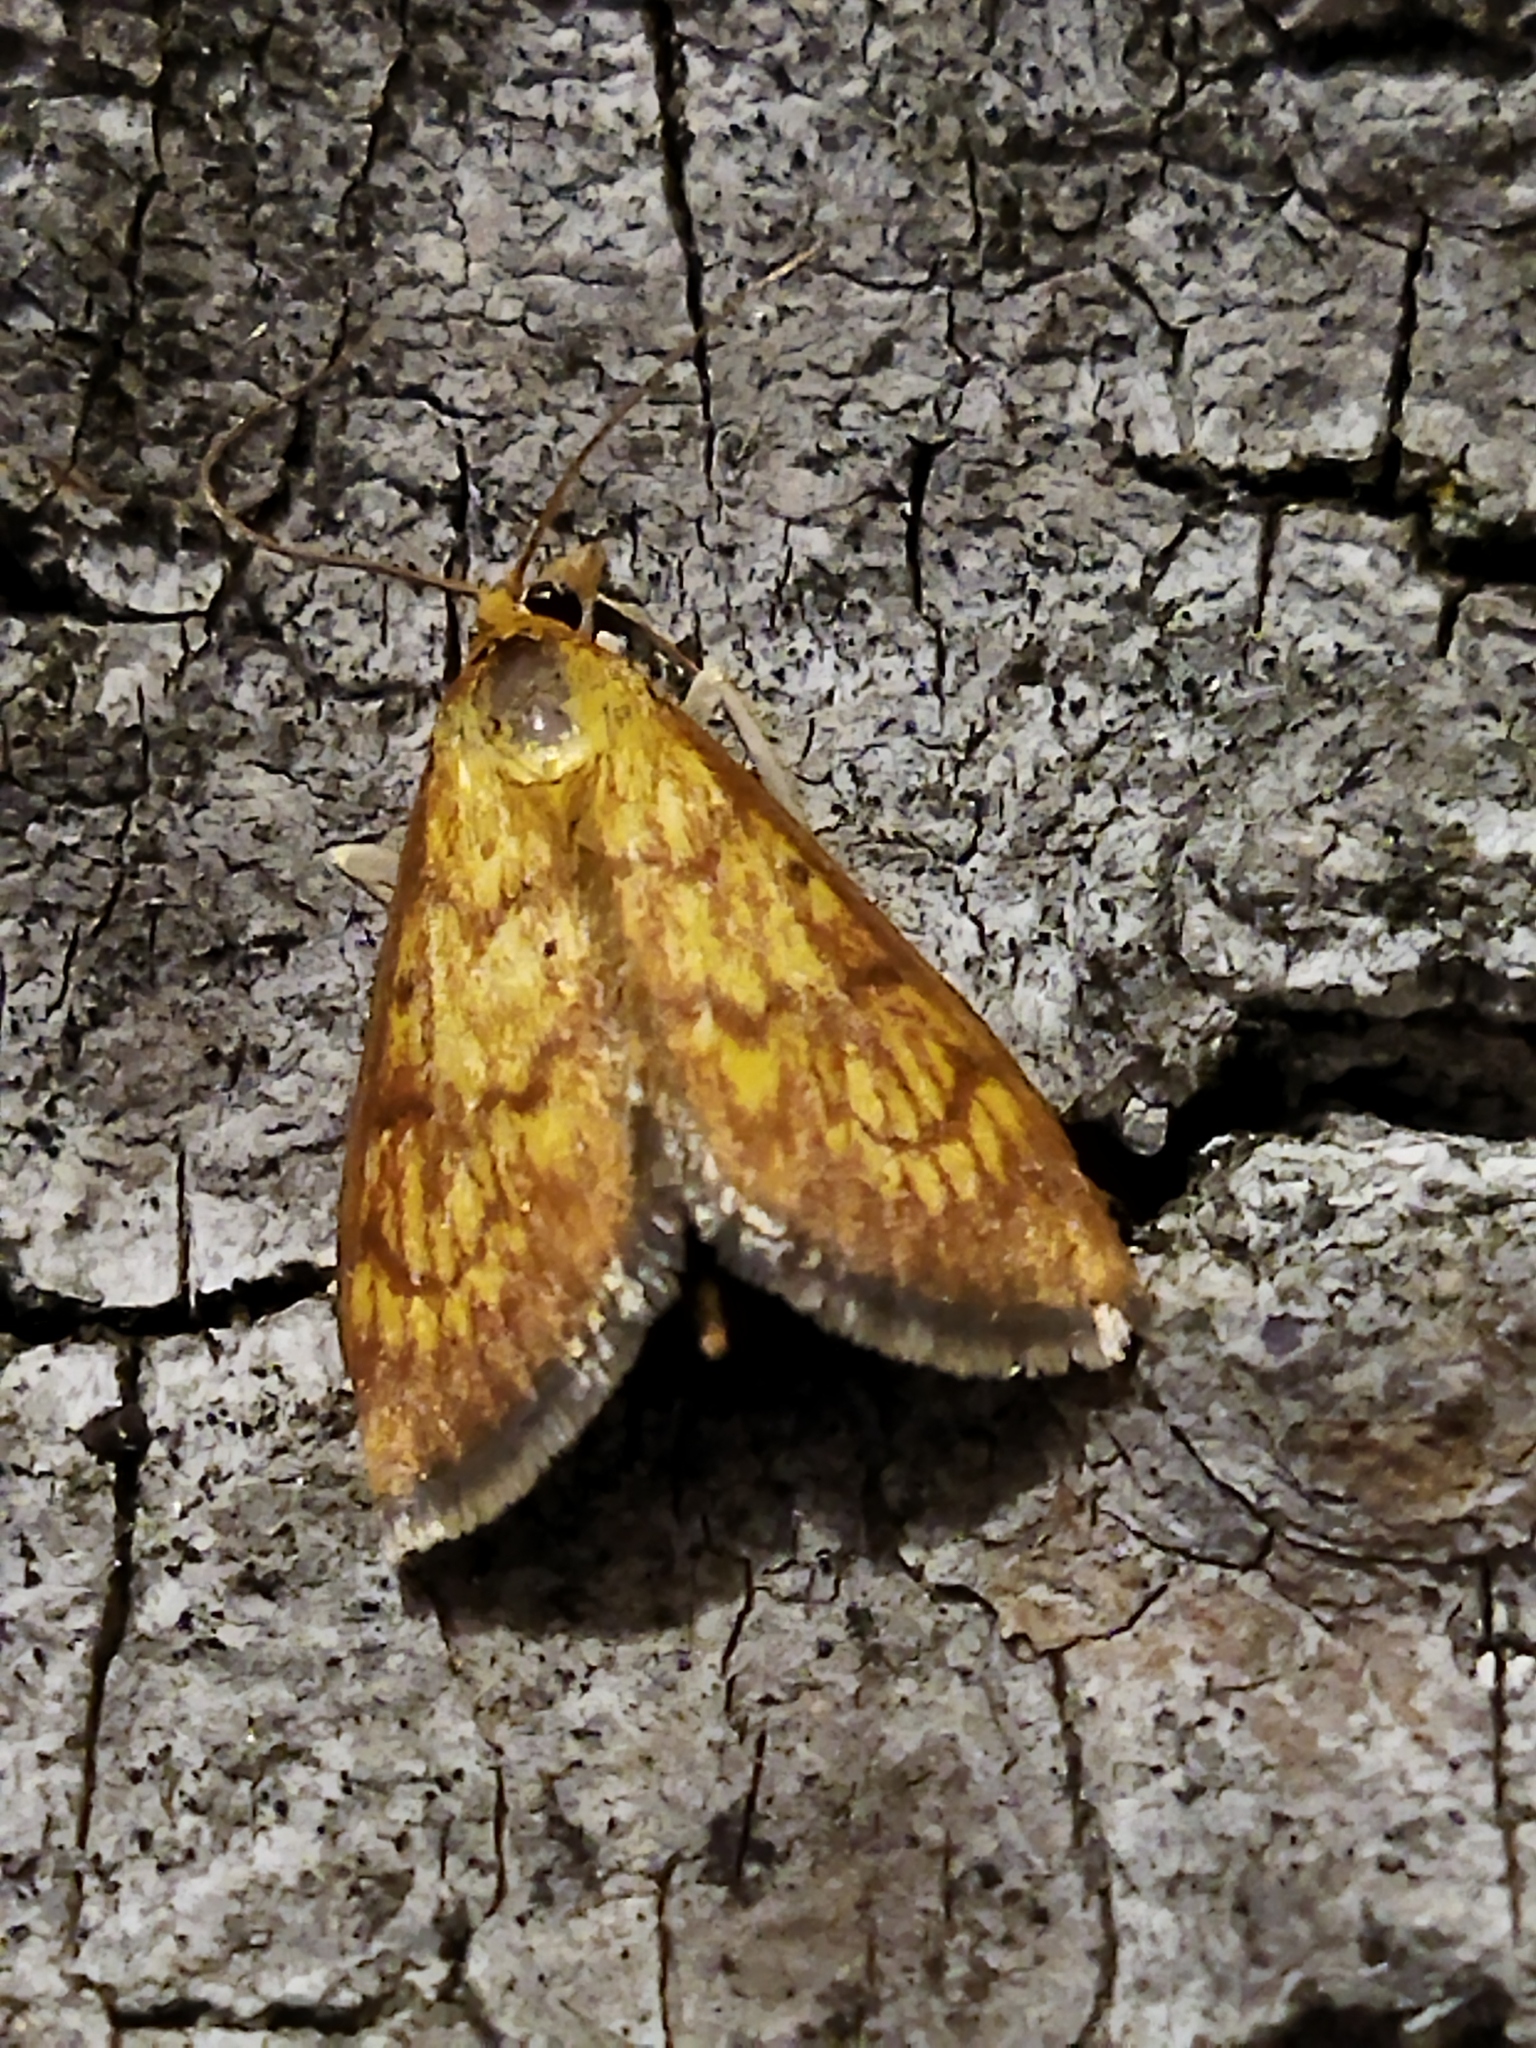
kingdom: Animalia
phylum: Arthropoda
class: Insecta
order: Lepidoptera
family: Crambidae
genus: Ecpyrrhorrhoe
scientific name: Ecpyrrhorrhoe rubiginalis
